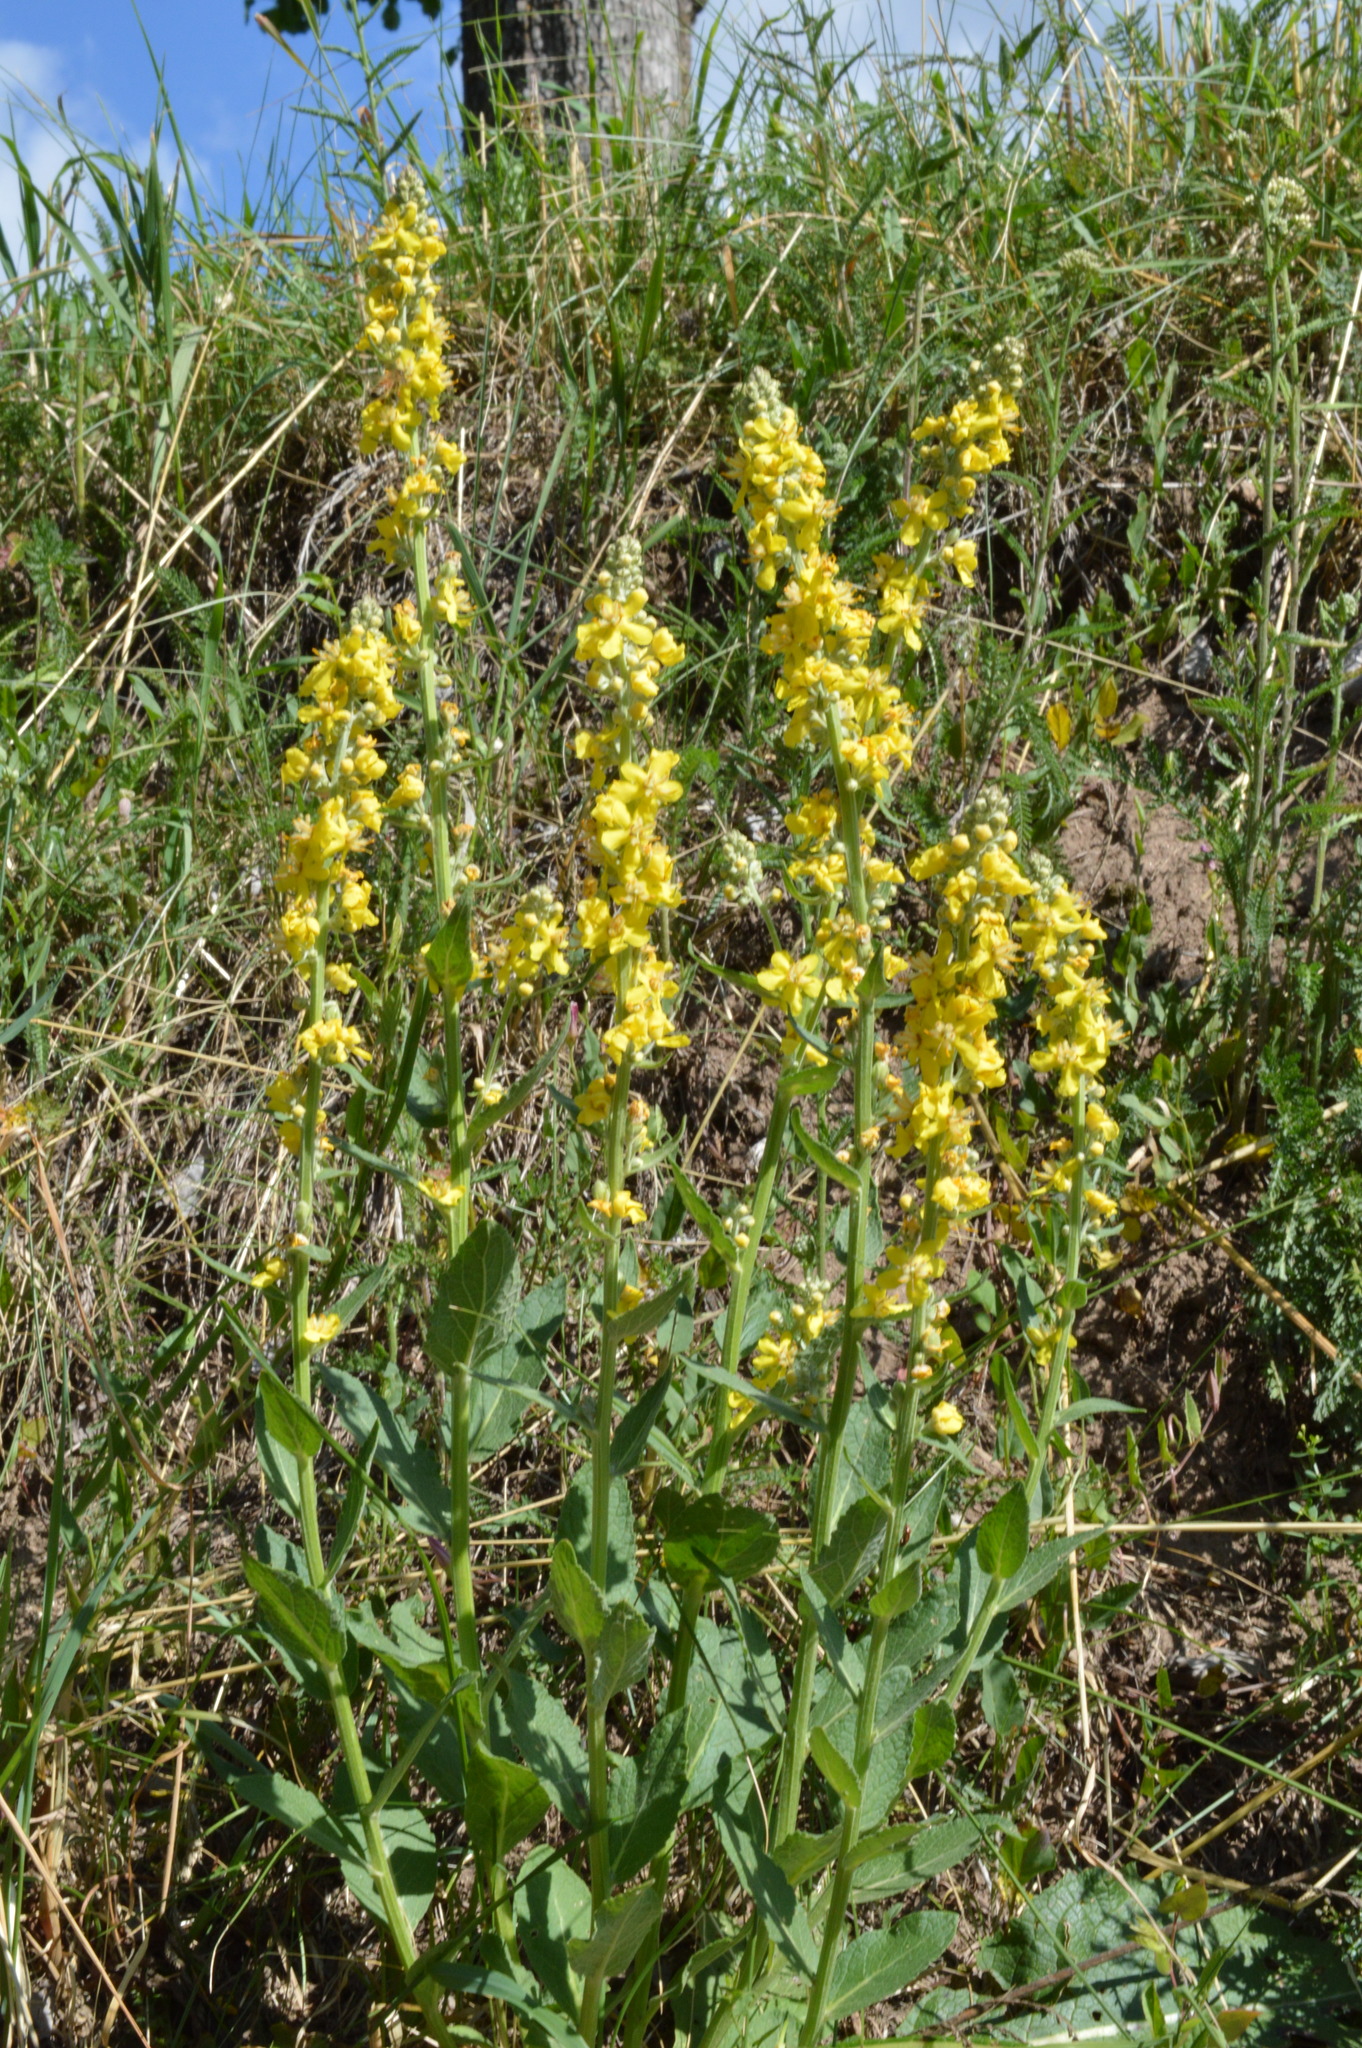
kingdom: Plantae
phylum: Tracheophyta
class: Magnoliopsida
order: Lamiales
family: Scrophulariaceae
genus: Verbascum
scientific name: Verbascum lychnitis
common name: White mullein
